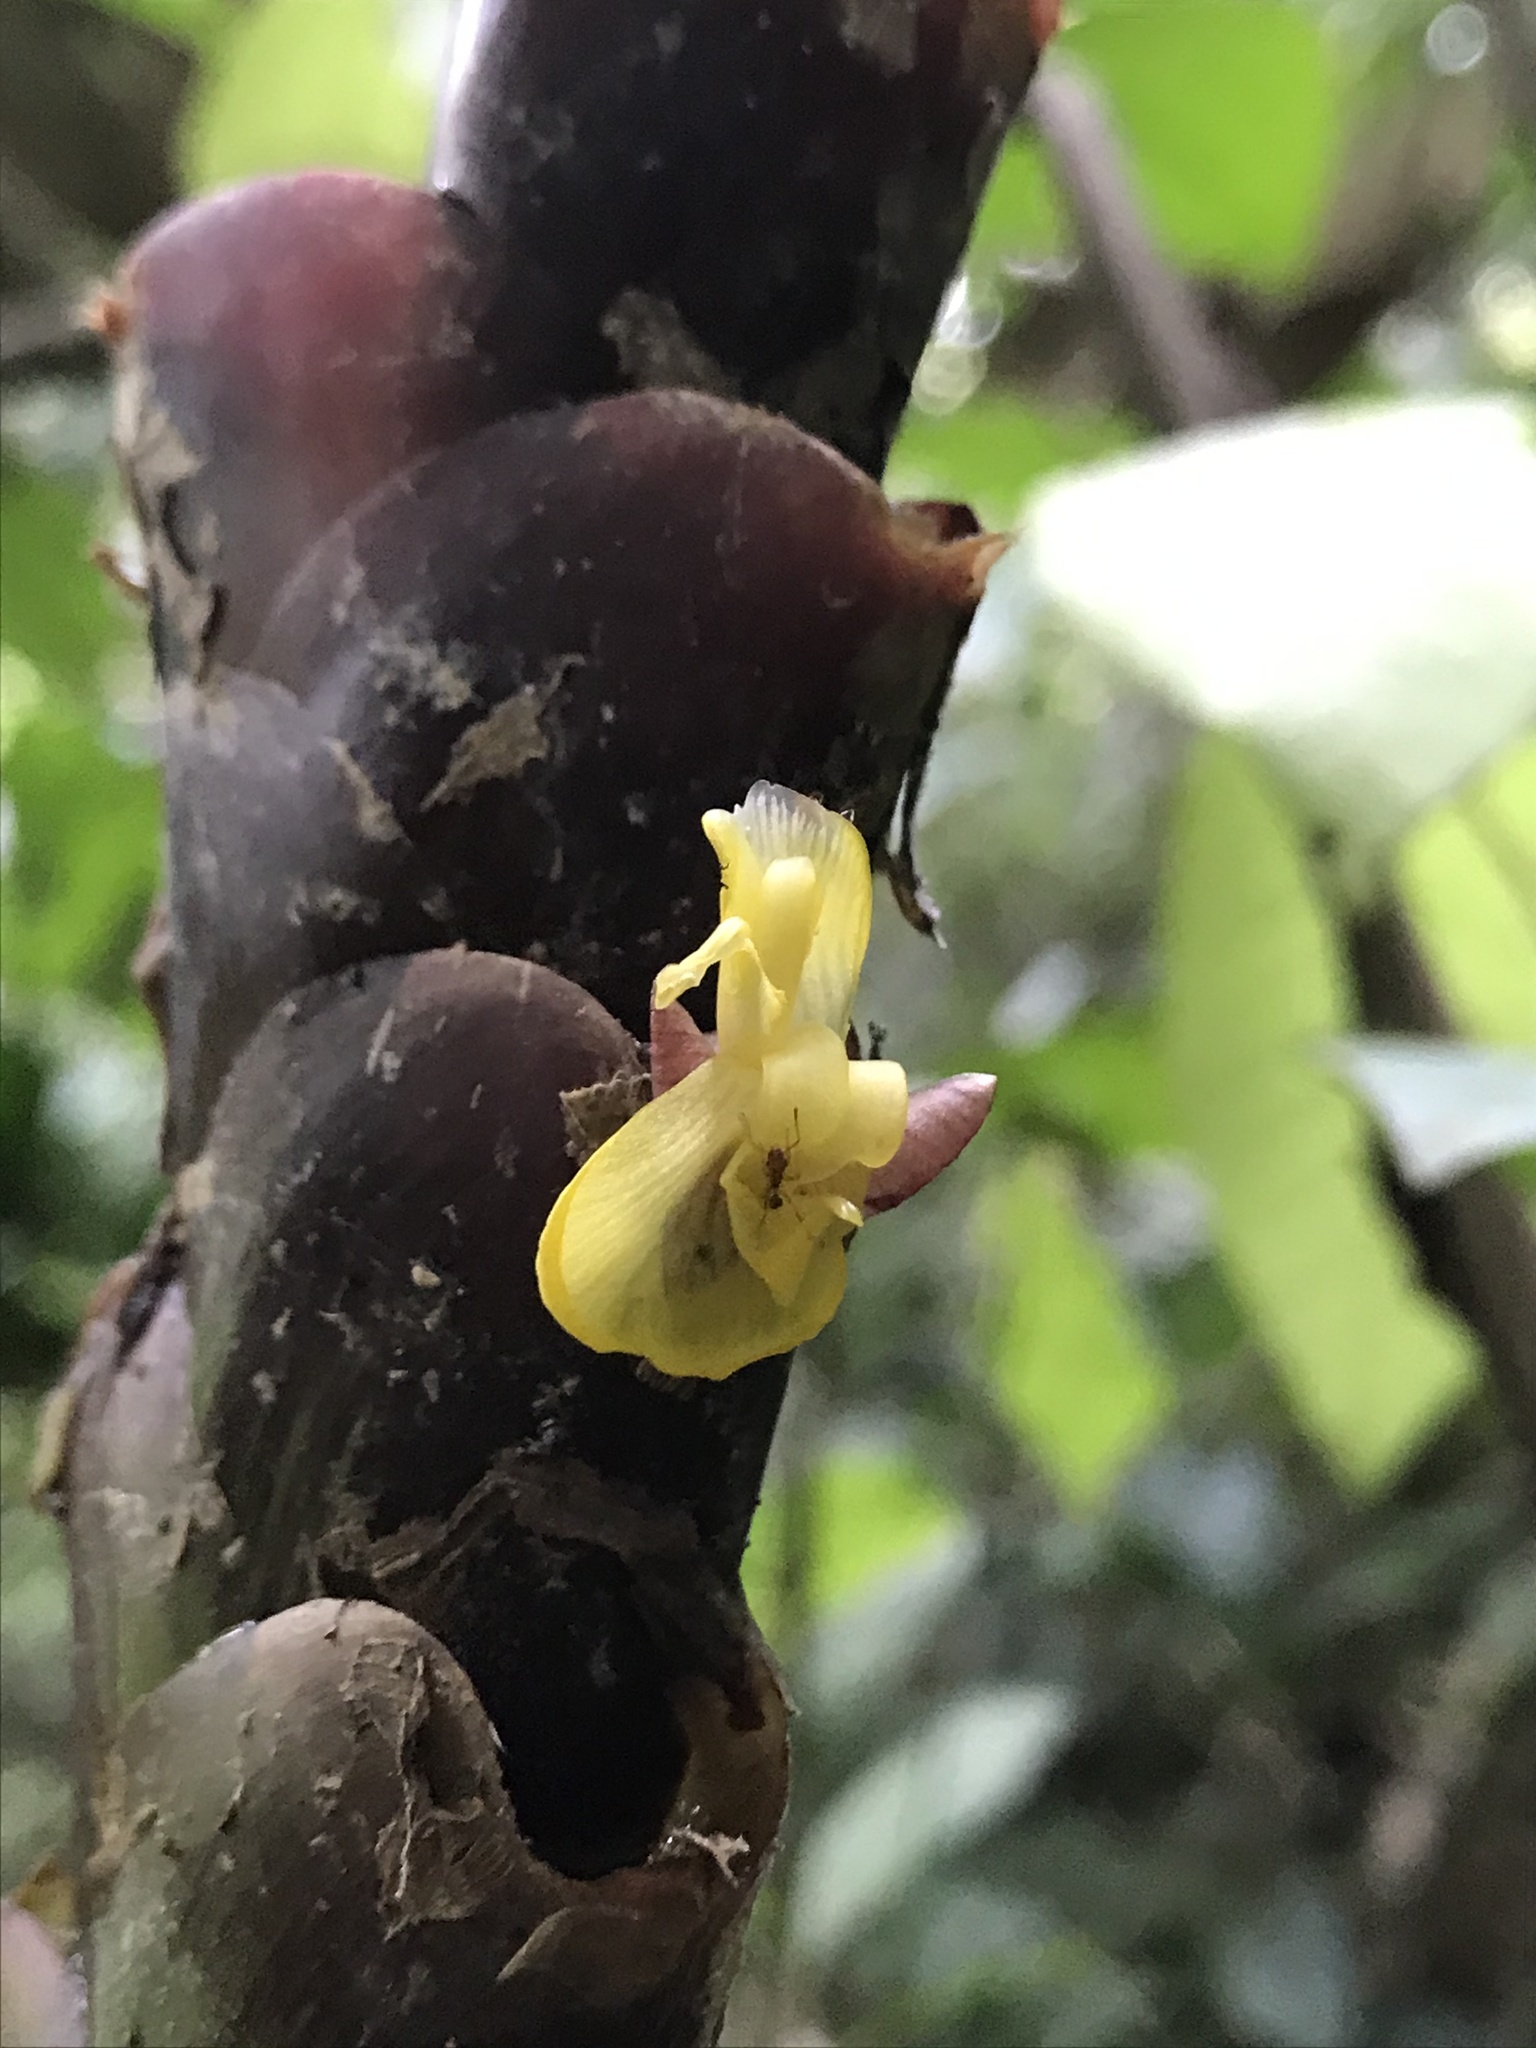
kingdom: Plantae
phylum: Tracheophyta
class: Liliopsida
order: Zingiberales
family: Marantaceae
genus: Calathea
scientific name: Calathea lutea
